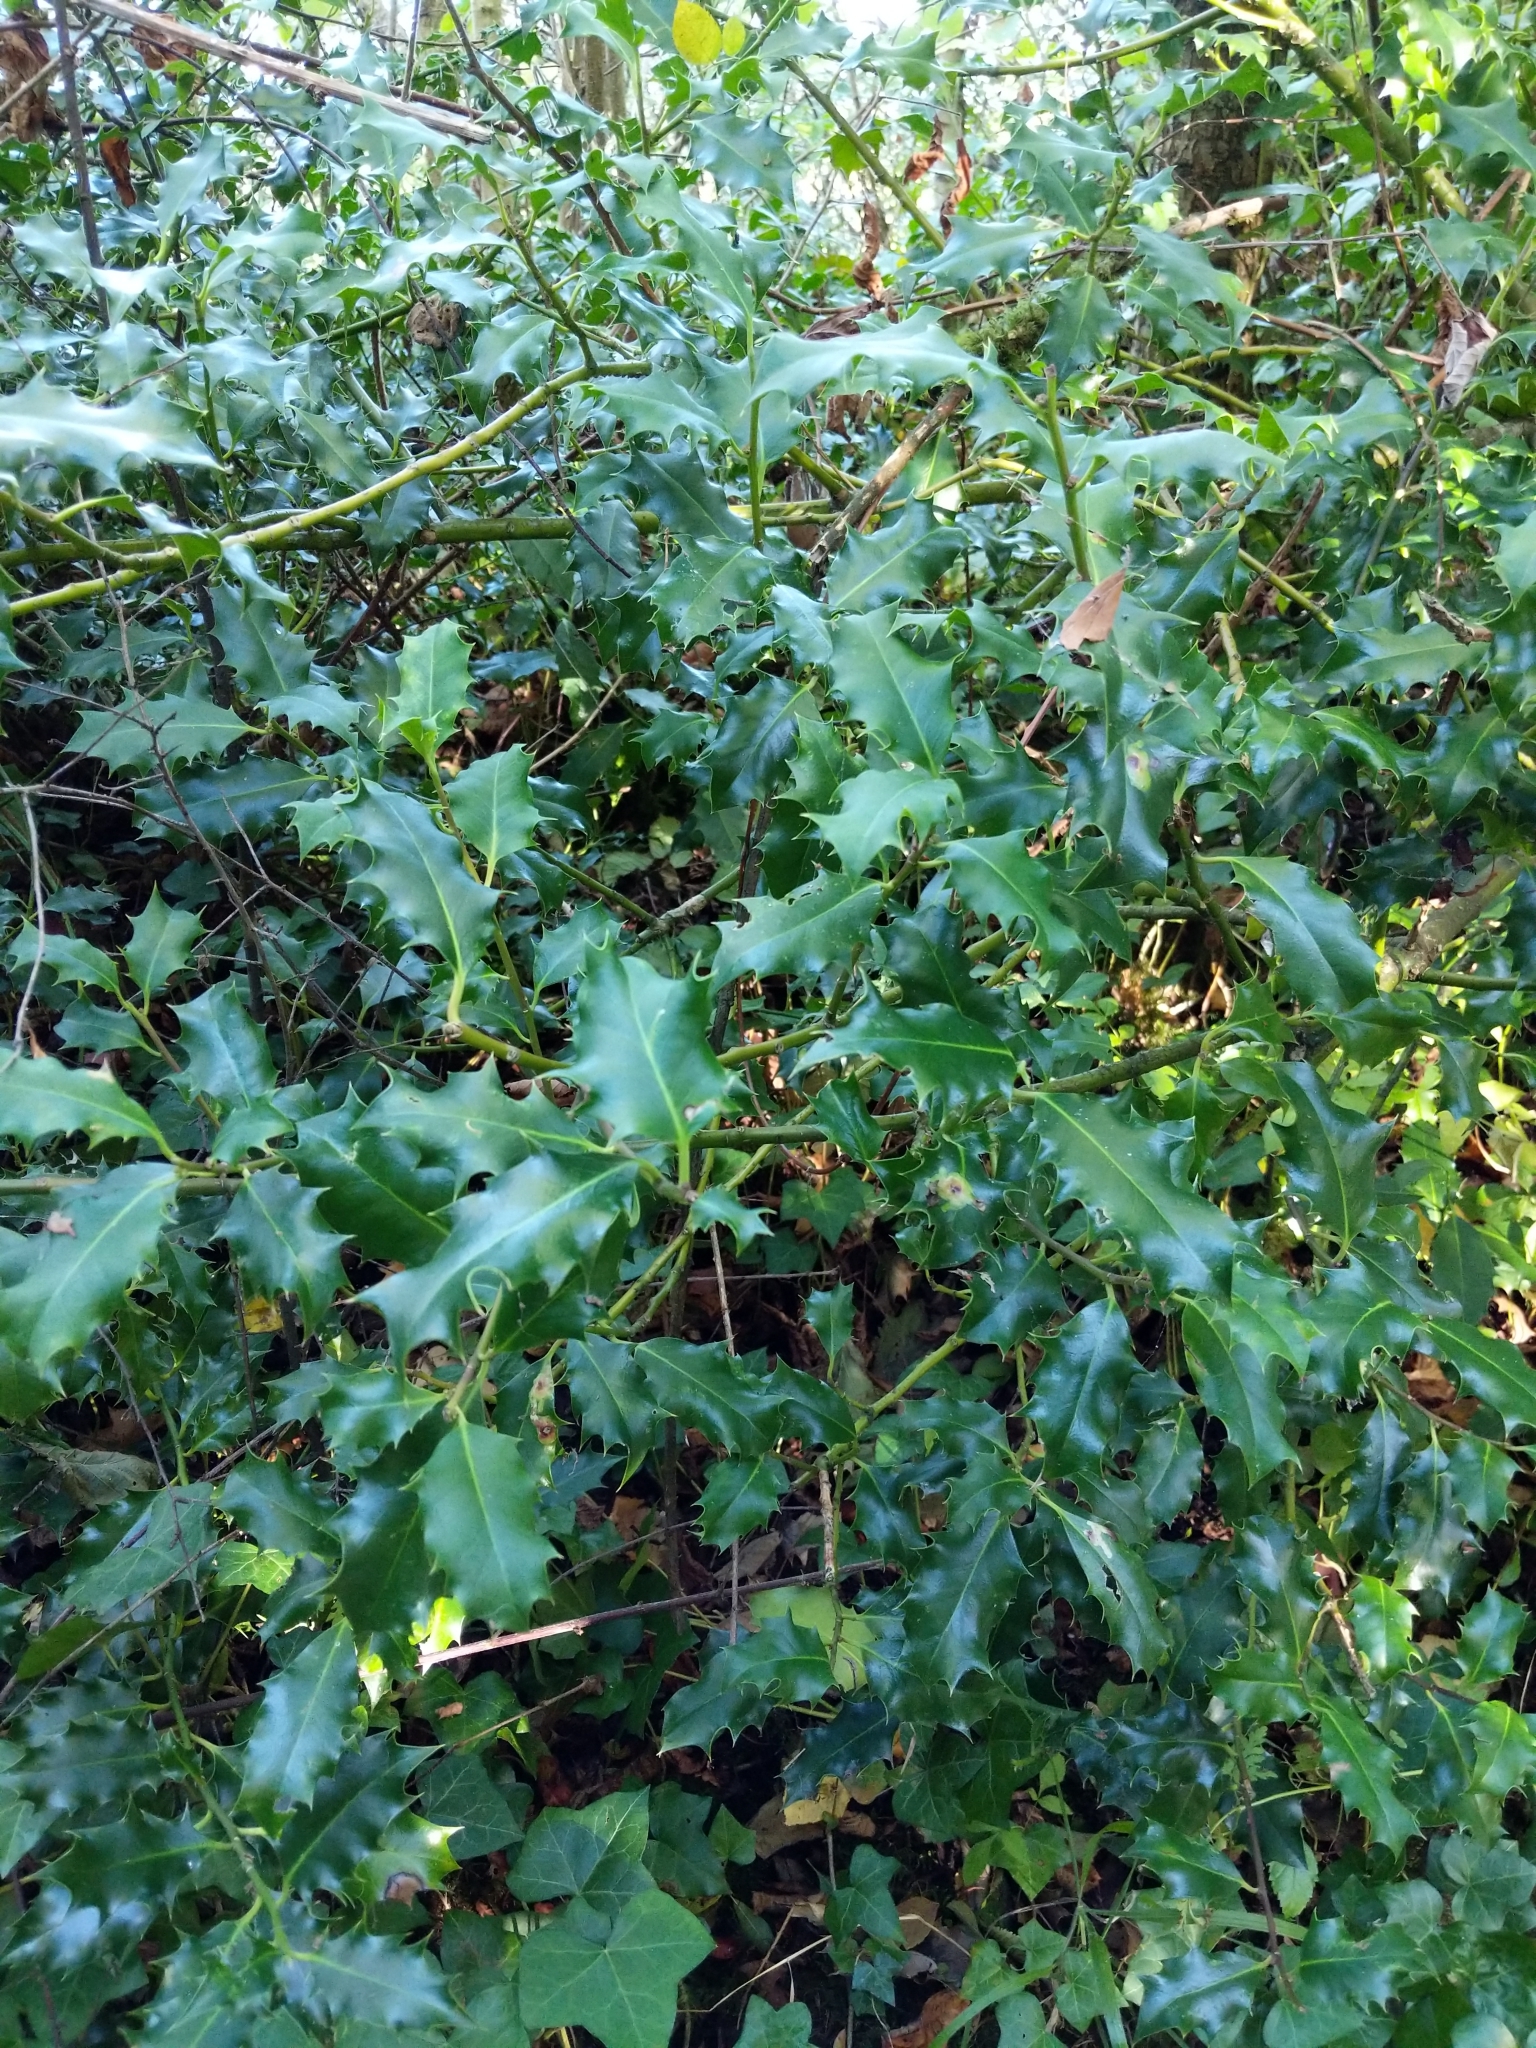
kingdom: Plantae
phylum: Tracheophyta
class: Magnoliopsida
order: Aquifoliales
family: Aquifoliaceae
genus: Ilex
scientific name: Ilex aquifolium
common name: English holly
